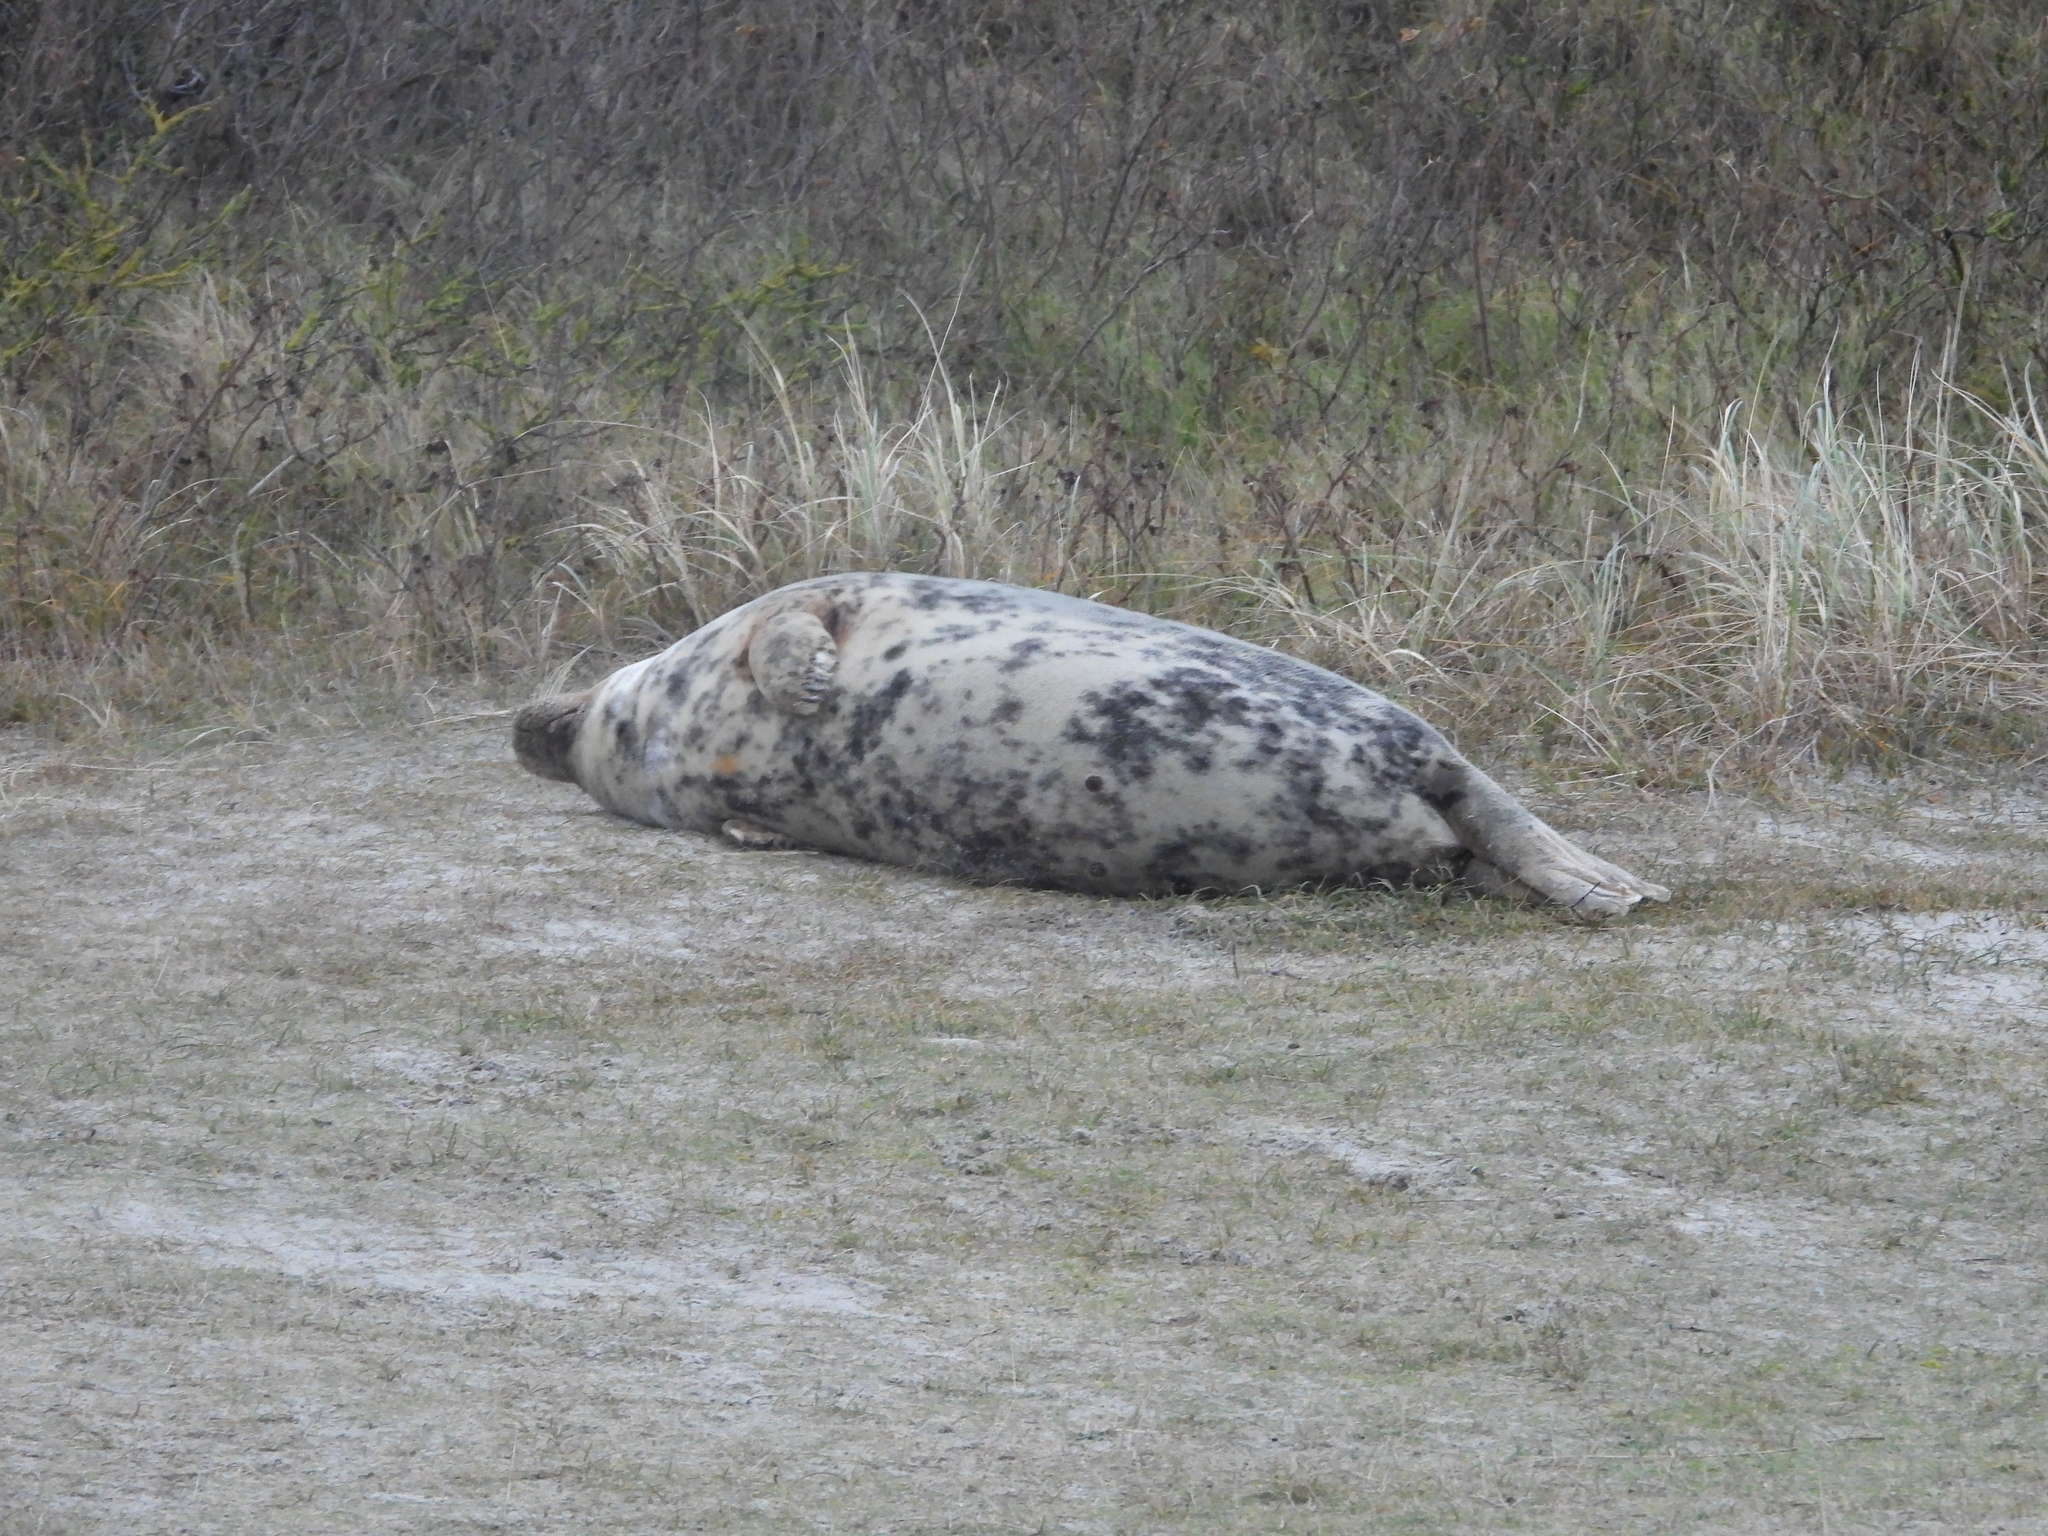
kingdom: Animalia
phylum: Chordata
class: Mammalia
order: Carnivora
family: Phocidae
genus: Halichoerus
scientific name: Halichoerus grypus
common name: Grey seal
